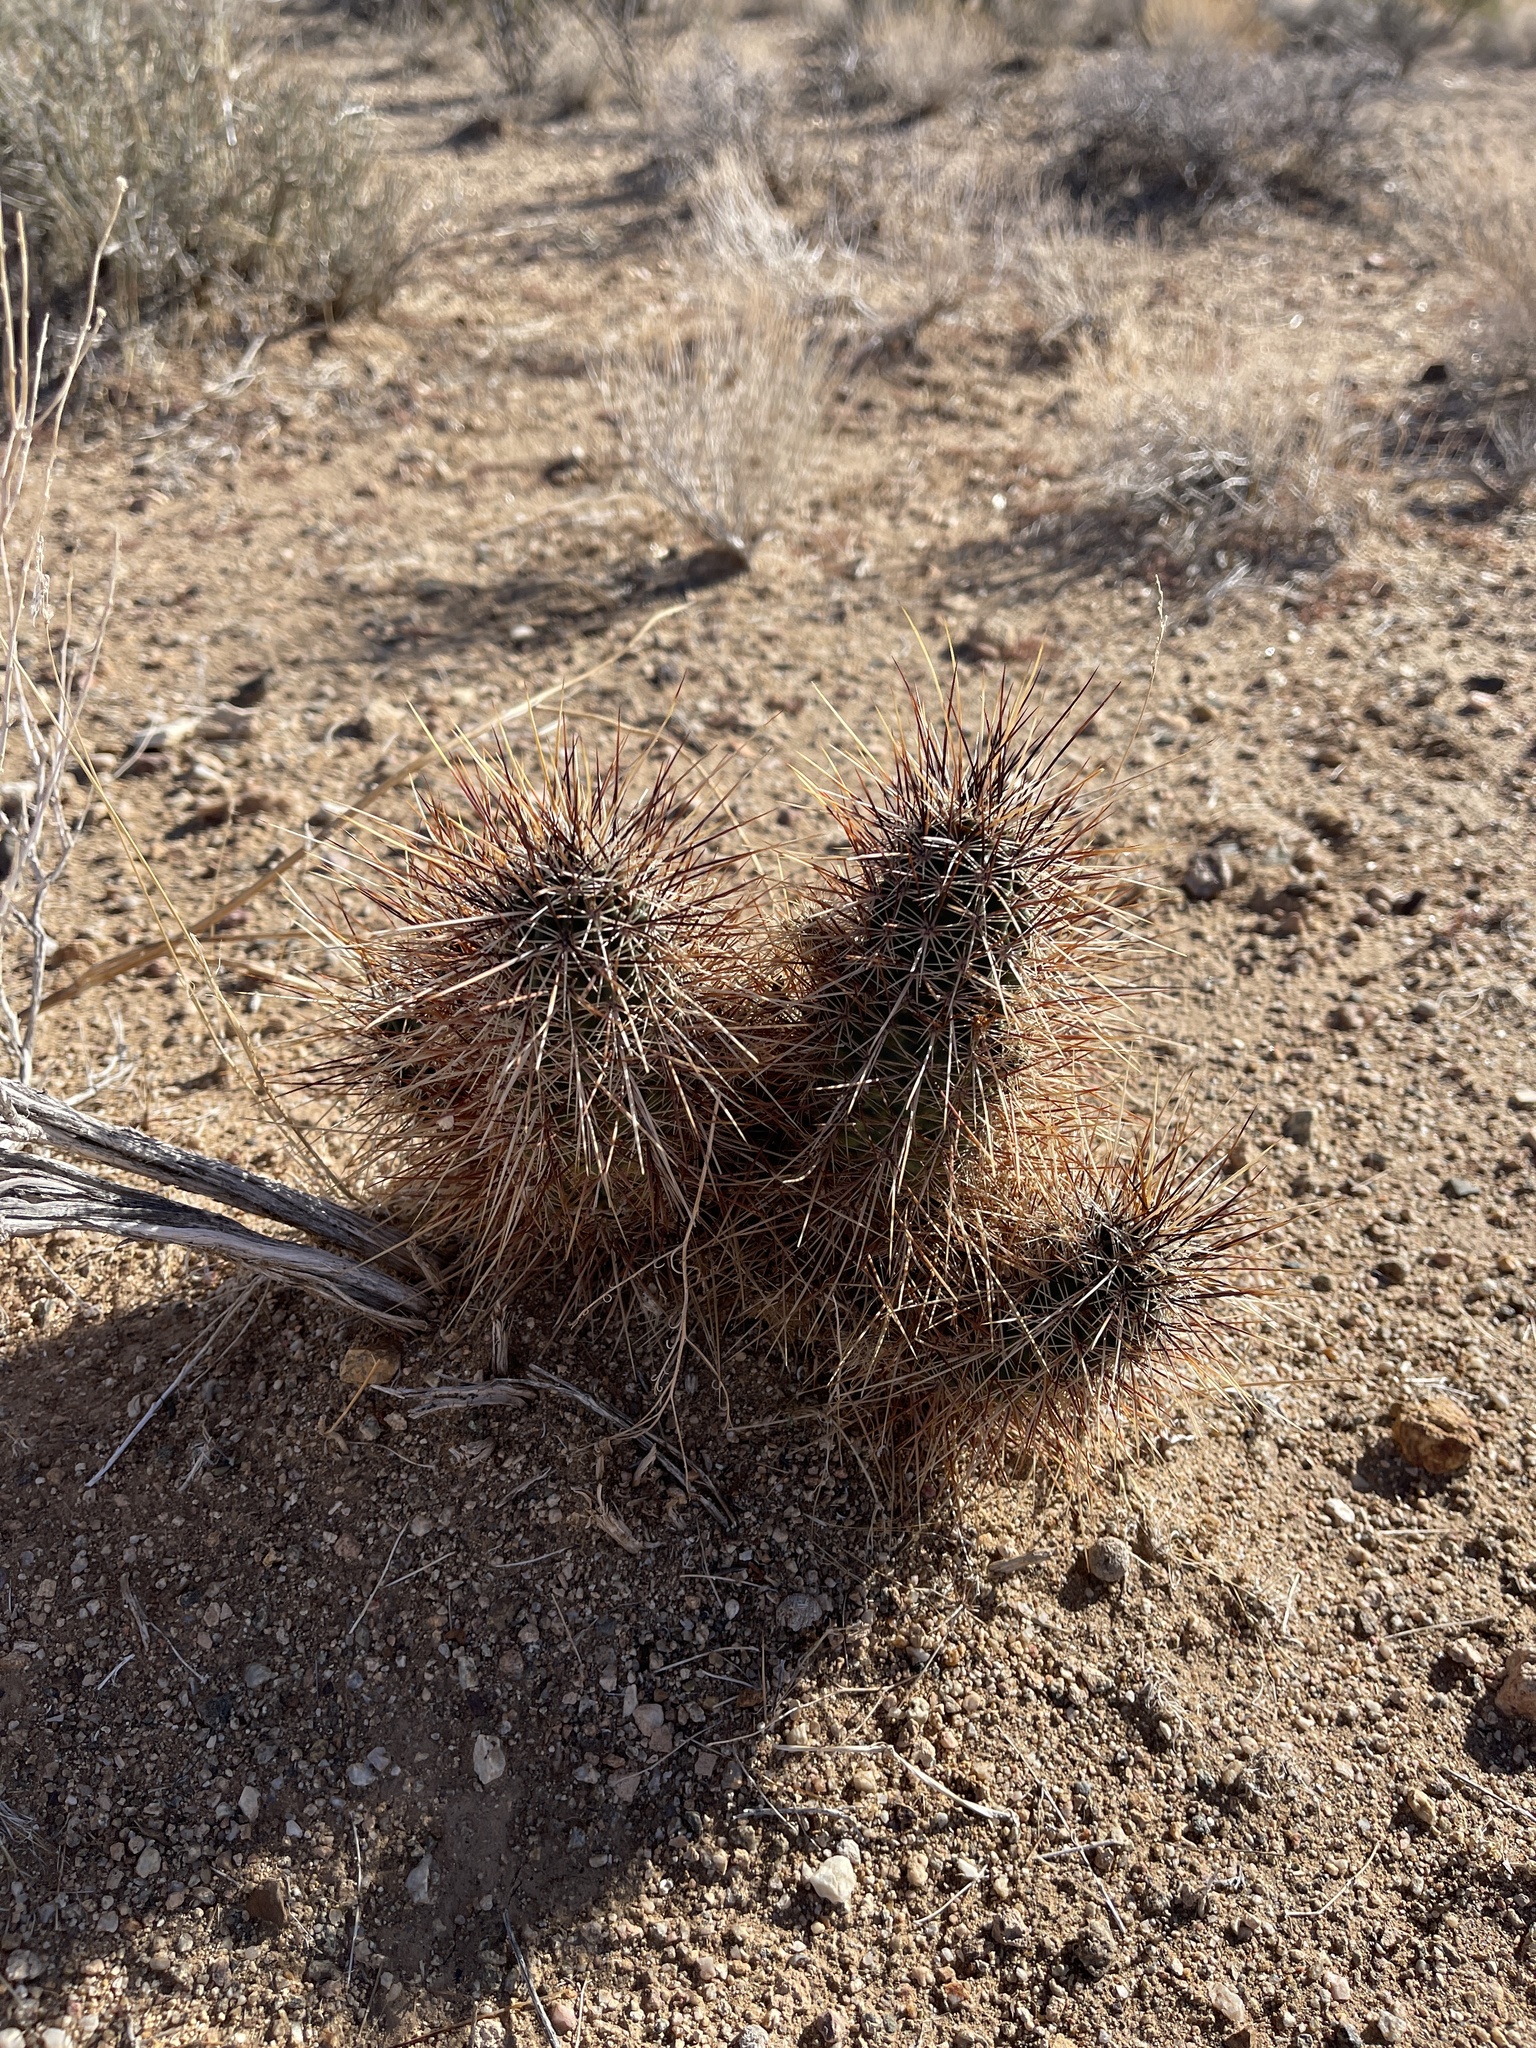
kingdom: Plantae
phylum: Tracheophyta
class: Magnoliopsida
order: Caryophyllales
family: Cactaceae
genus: Echinocereus
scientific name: Echinocereus engelmannii
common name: Engelmann's hedgehog cactus
